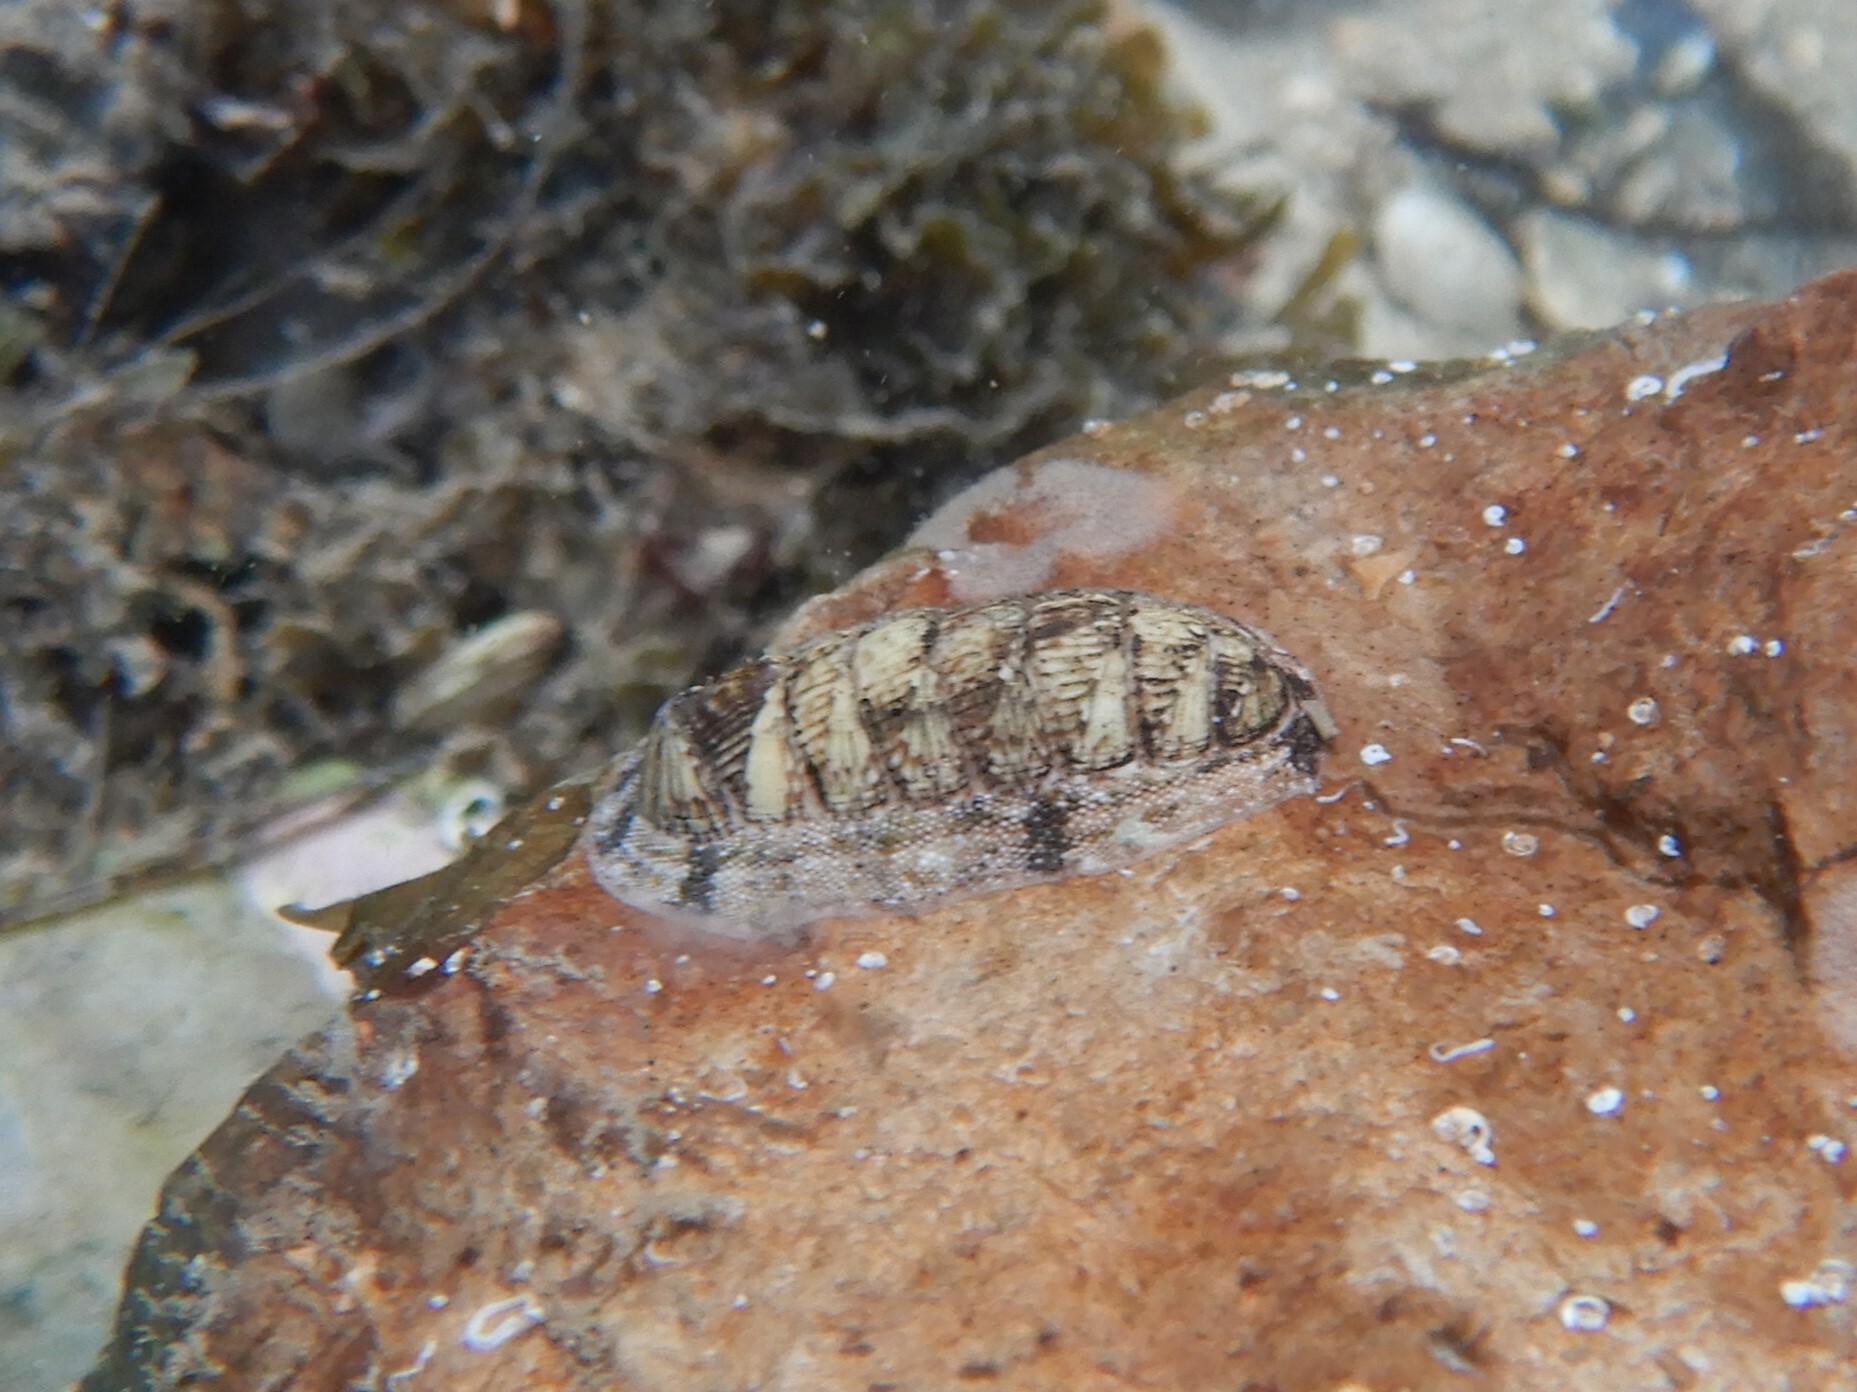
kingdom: Animalia
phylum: Mollusca
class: Polyplacophora
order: Chitonida
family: Chitonidae
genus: Rhyssoplax
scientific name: Rhyssoplax olivacea
